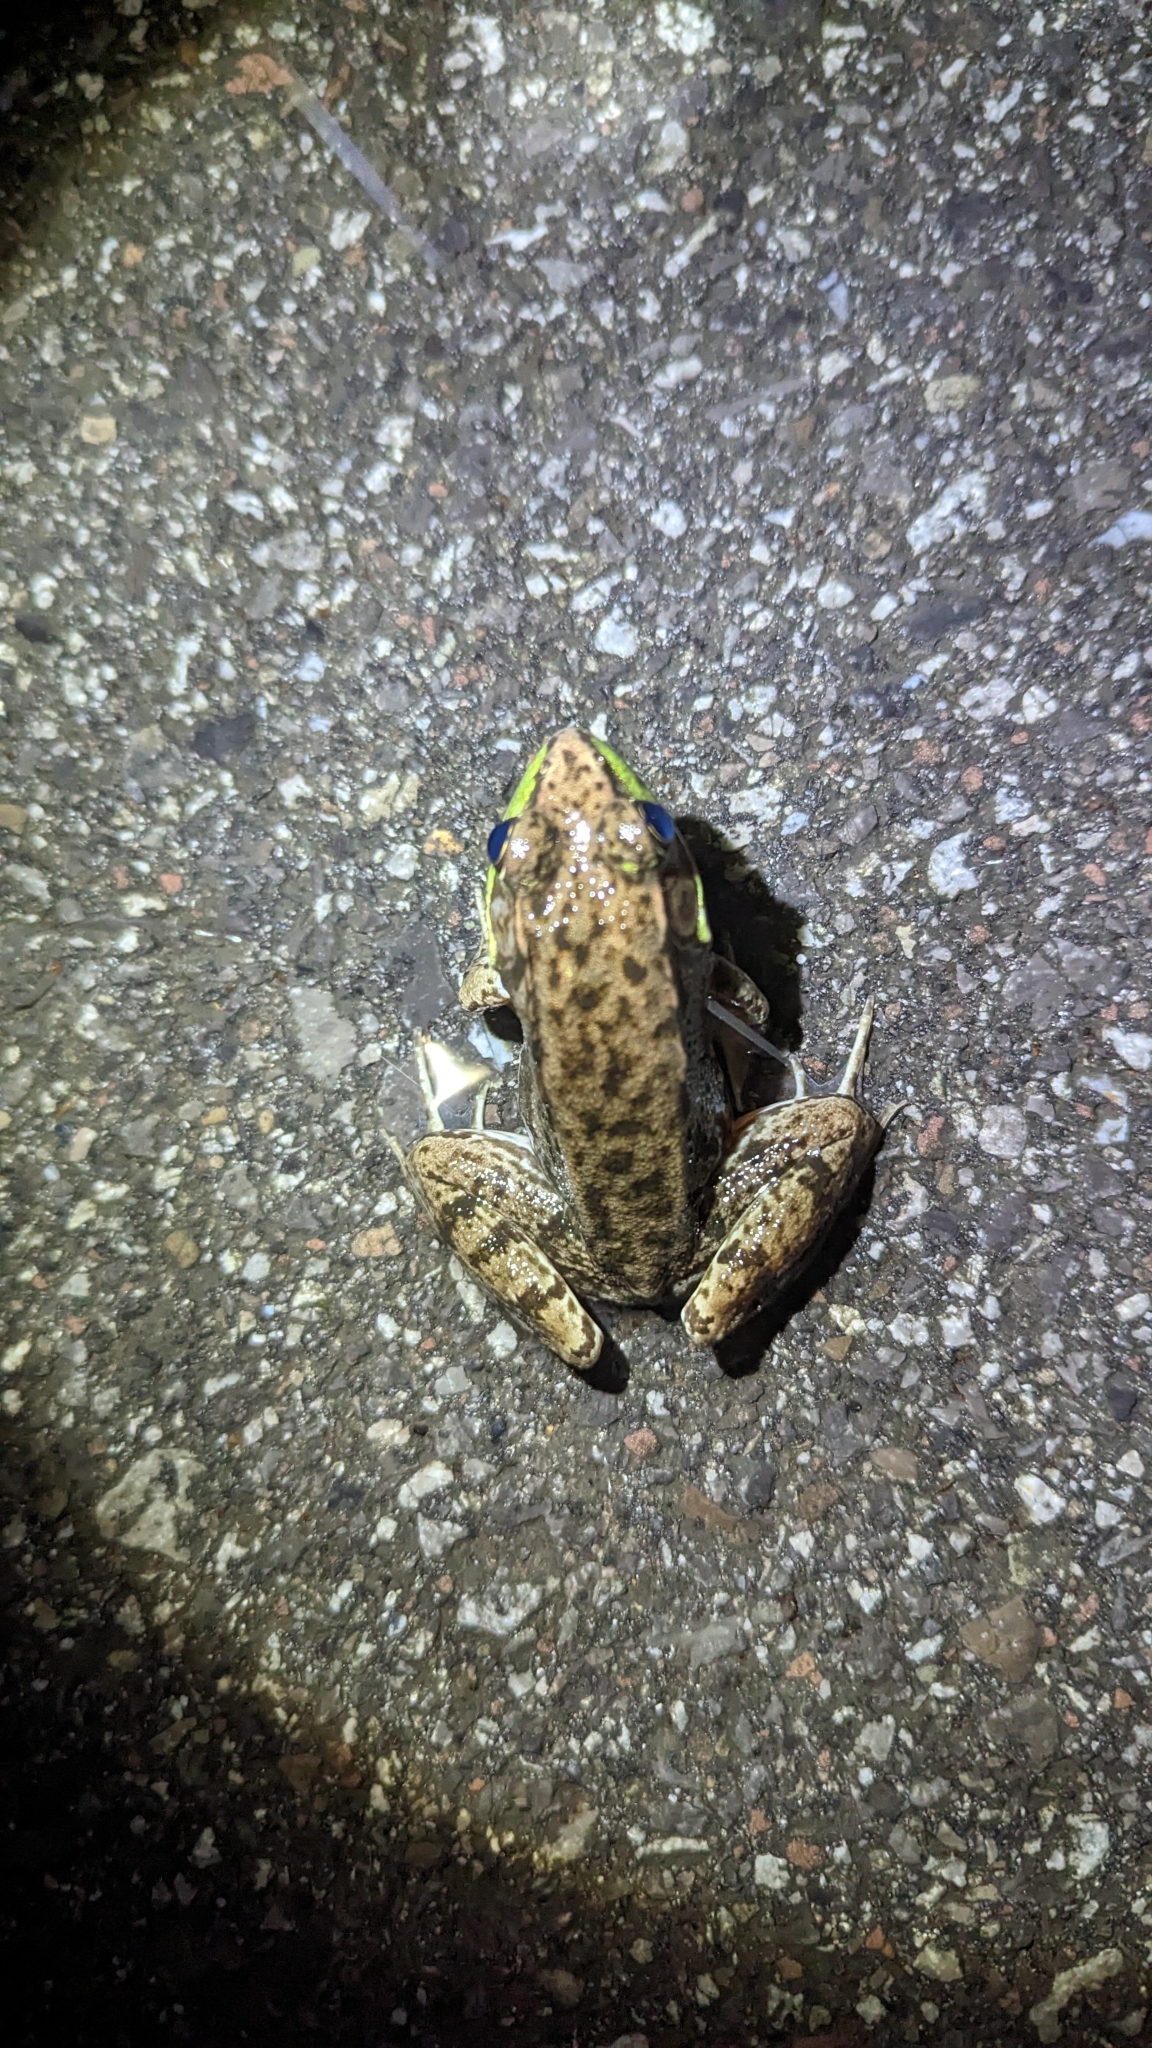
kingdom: Animalia
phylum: Chordata
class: Amphibia
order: Anura
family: Ranidae
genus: Lithobates
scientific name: Lithobates clamitans
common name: Green frog
